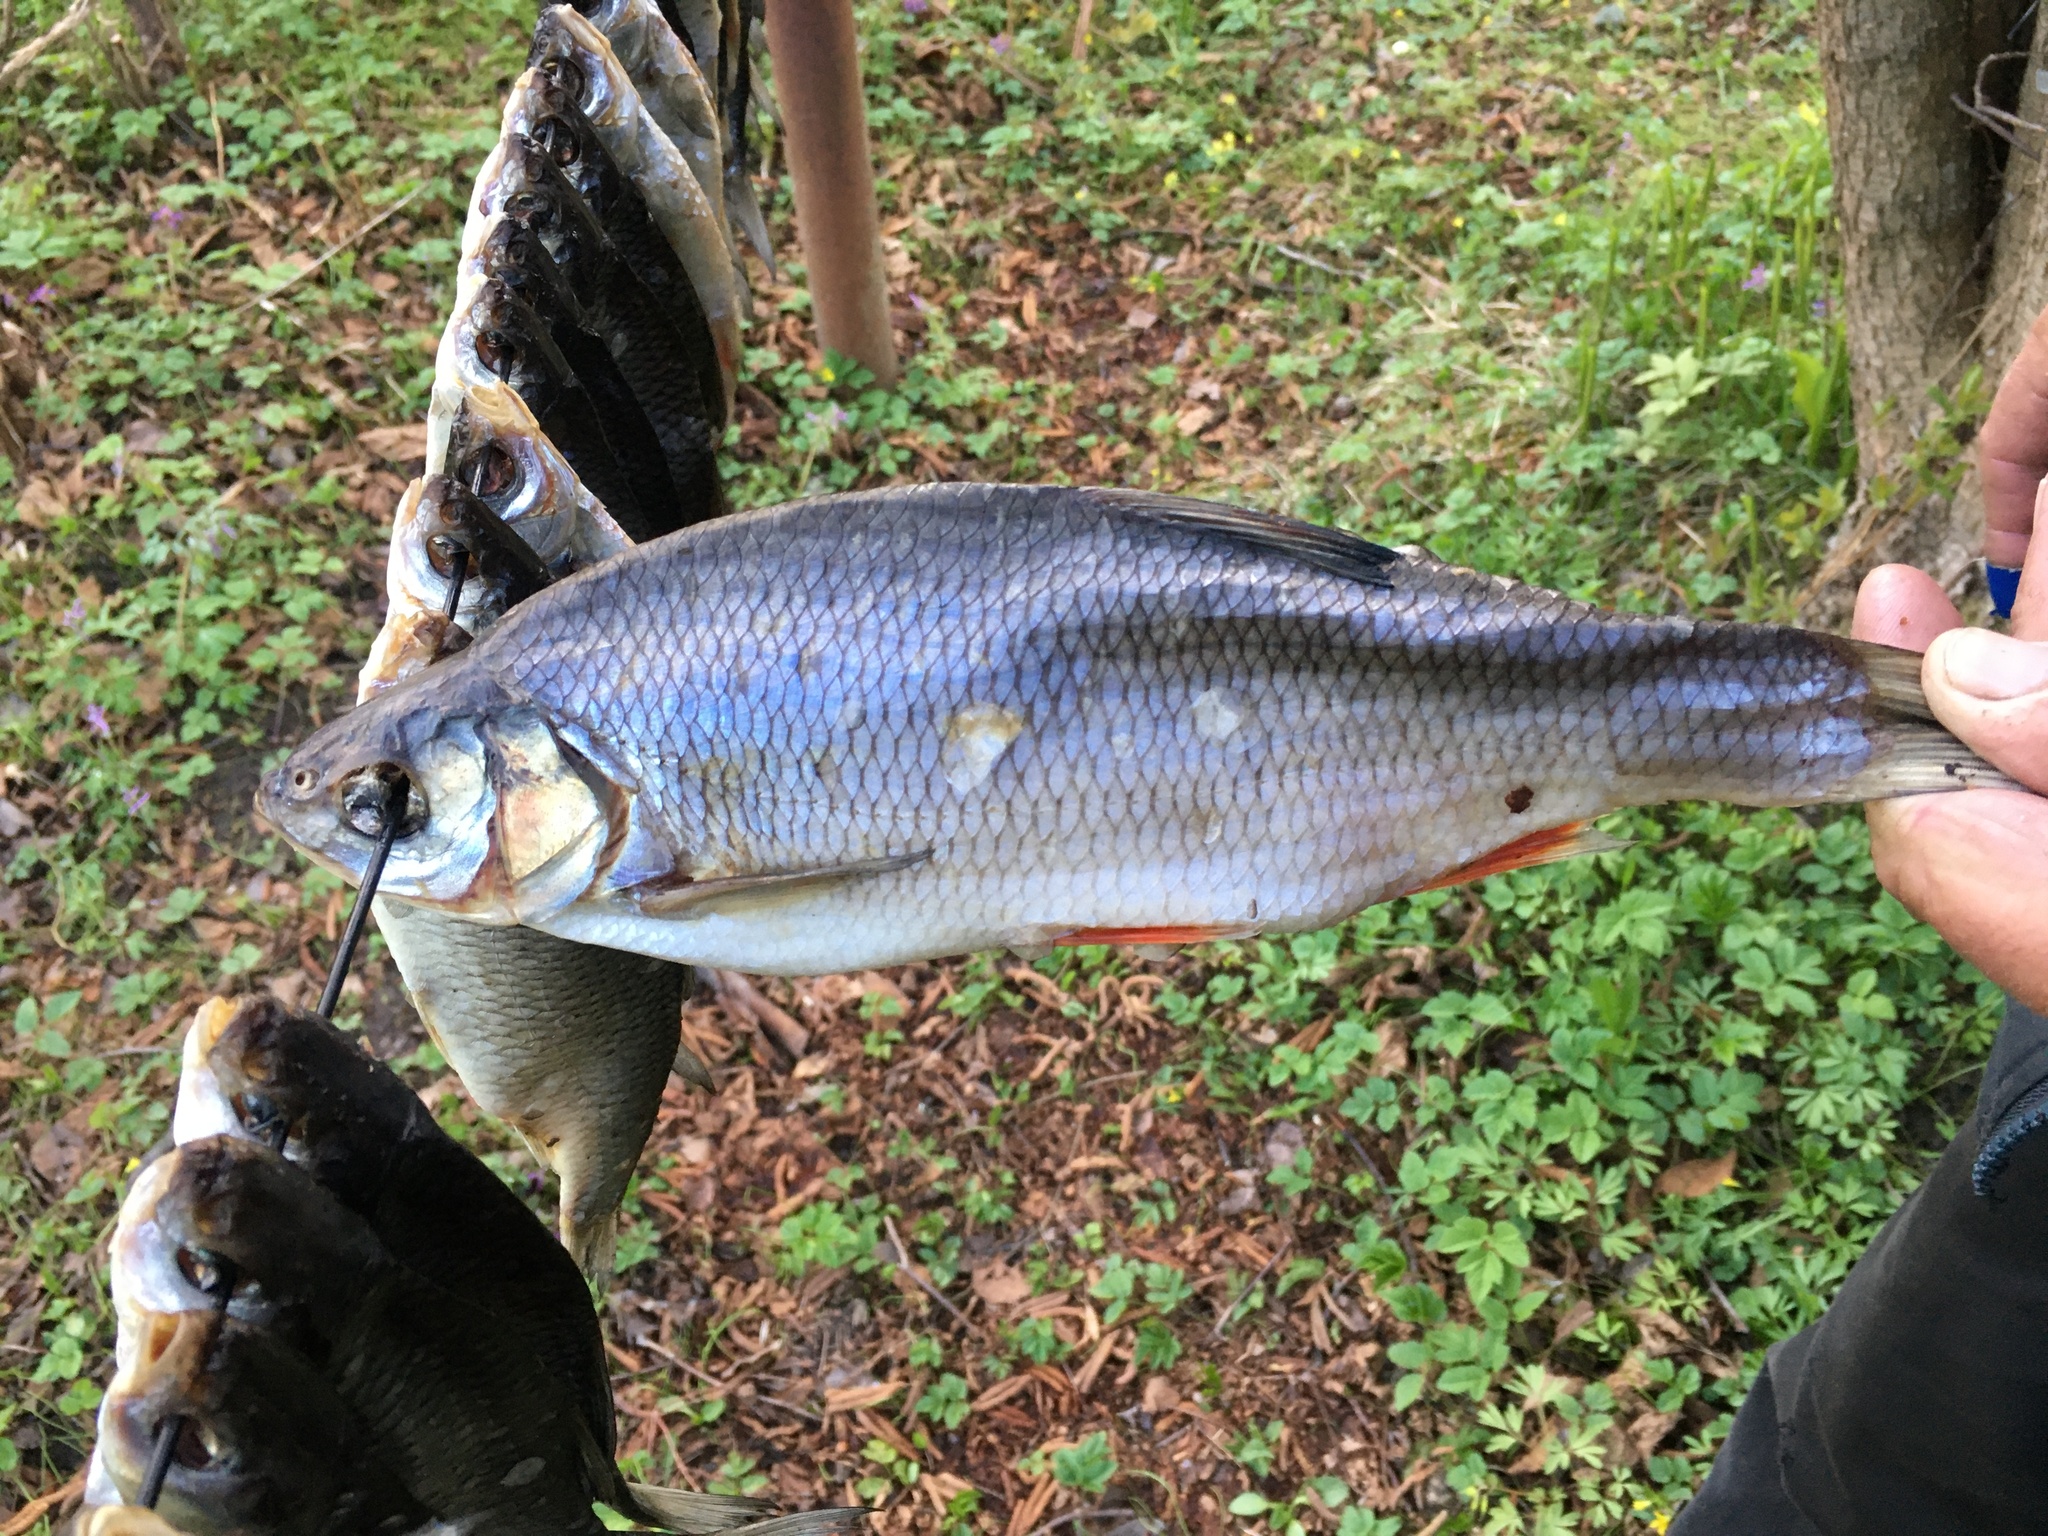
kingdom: Animalia
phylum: Chordata
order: Cypriniformes
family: Cyprinidae
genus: Leuciscus
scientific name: Leuciscus idus
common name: Ide
